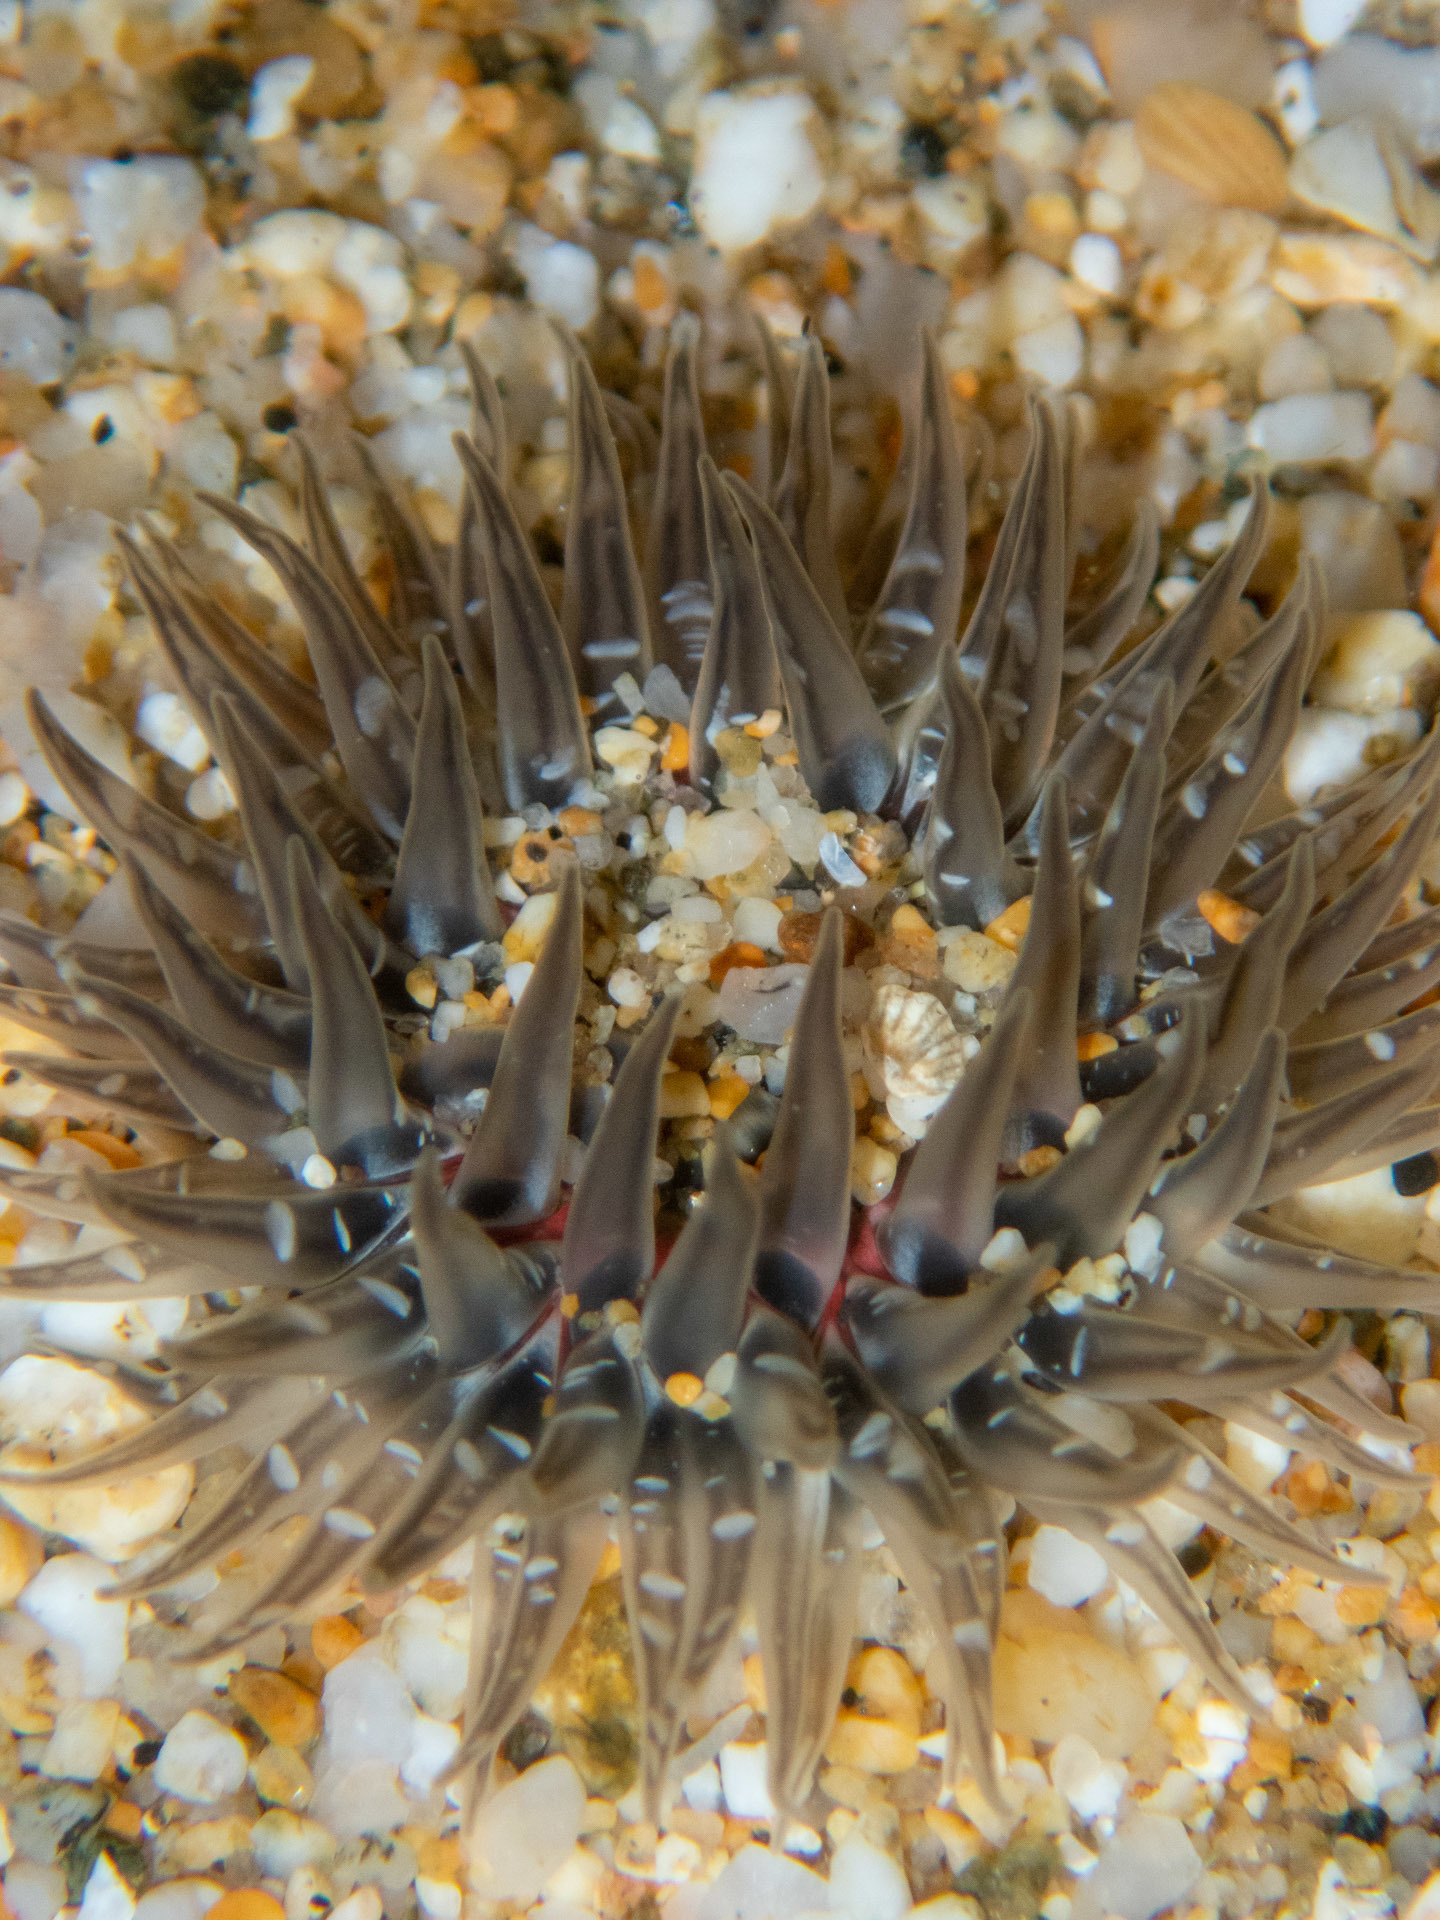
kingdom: Animalia
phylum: Cnidaria
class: Anthozoa
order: Actiniaria
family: Actiniidae
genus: Anthopleura
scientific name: Anthopleura artemisia
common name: Buried sea anemone
